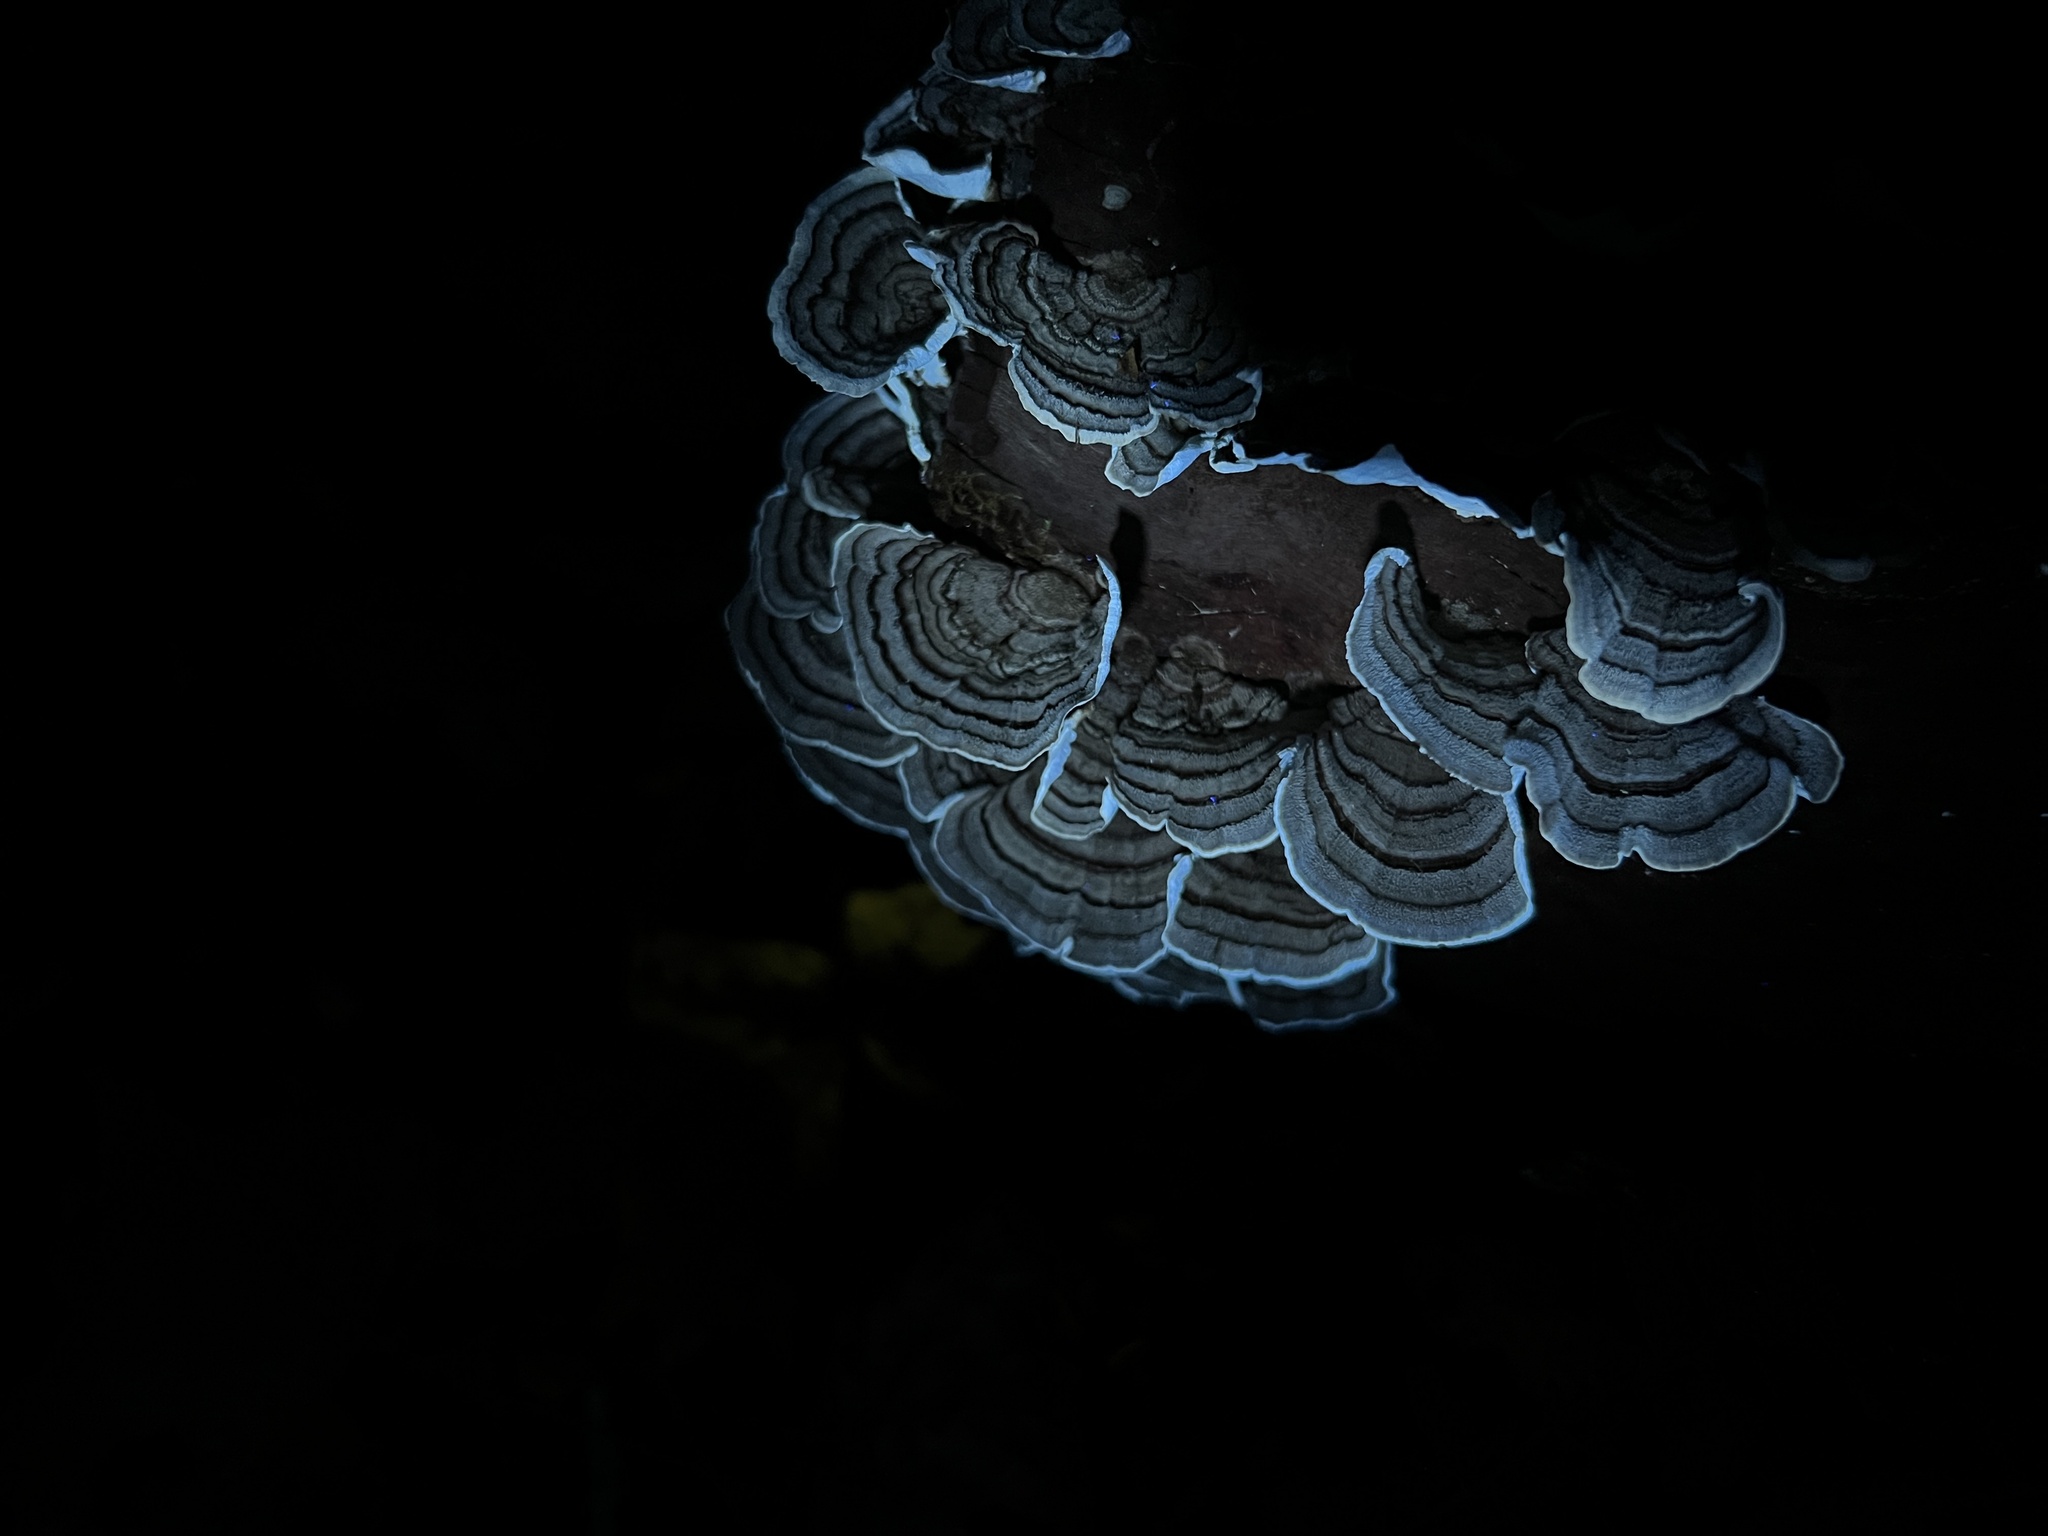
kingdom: Fungi
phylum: Basidiomycota
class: Agaricomycetes
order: Polyporales
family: Polyporaceae
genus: Trametes
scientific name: Trametes versicolor
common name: Turkeytail
